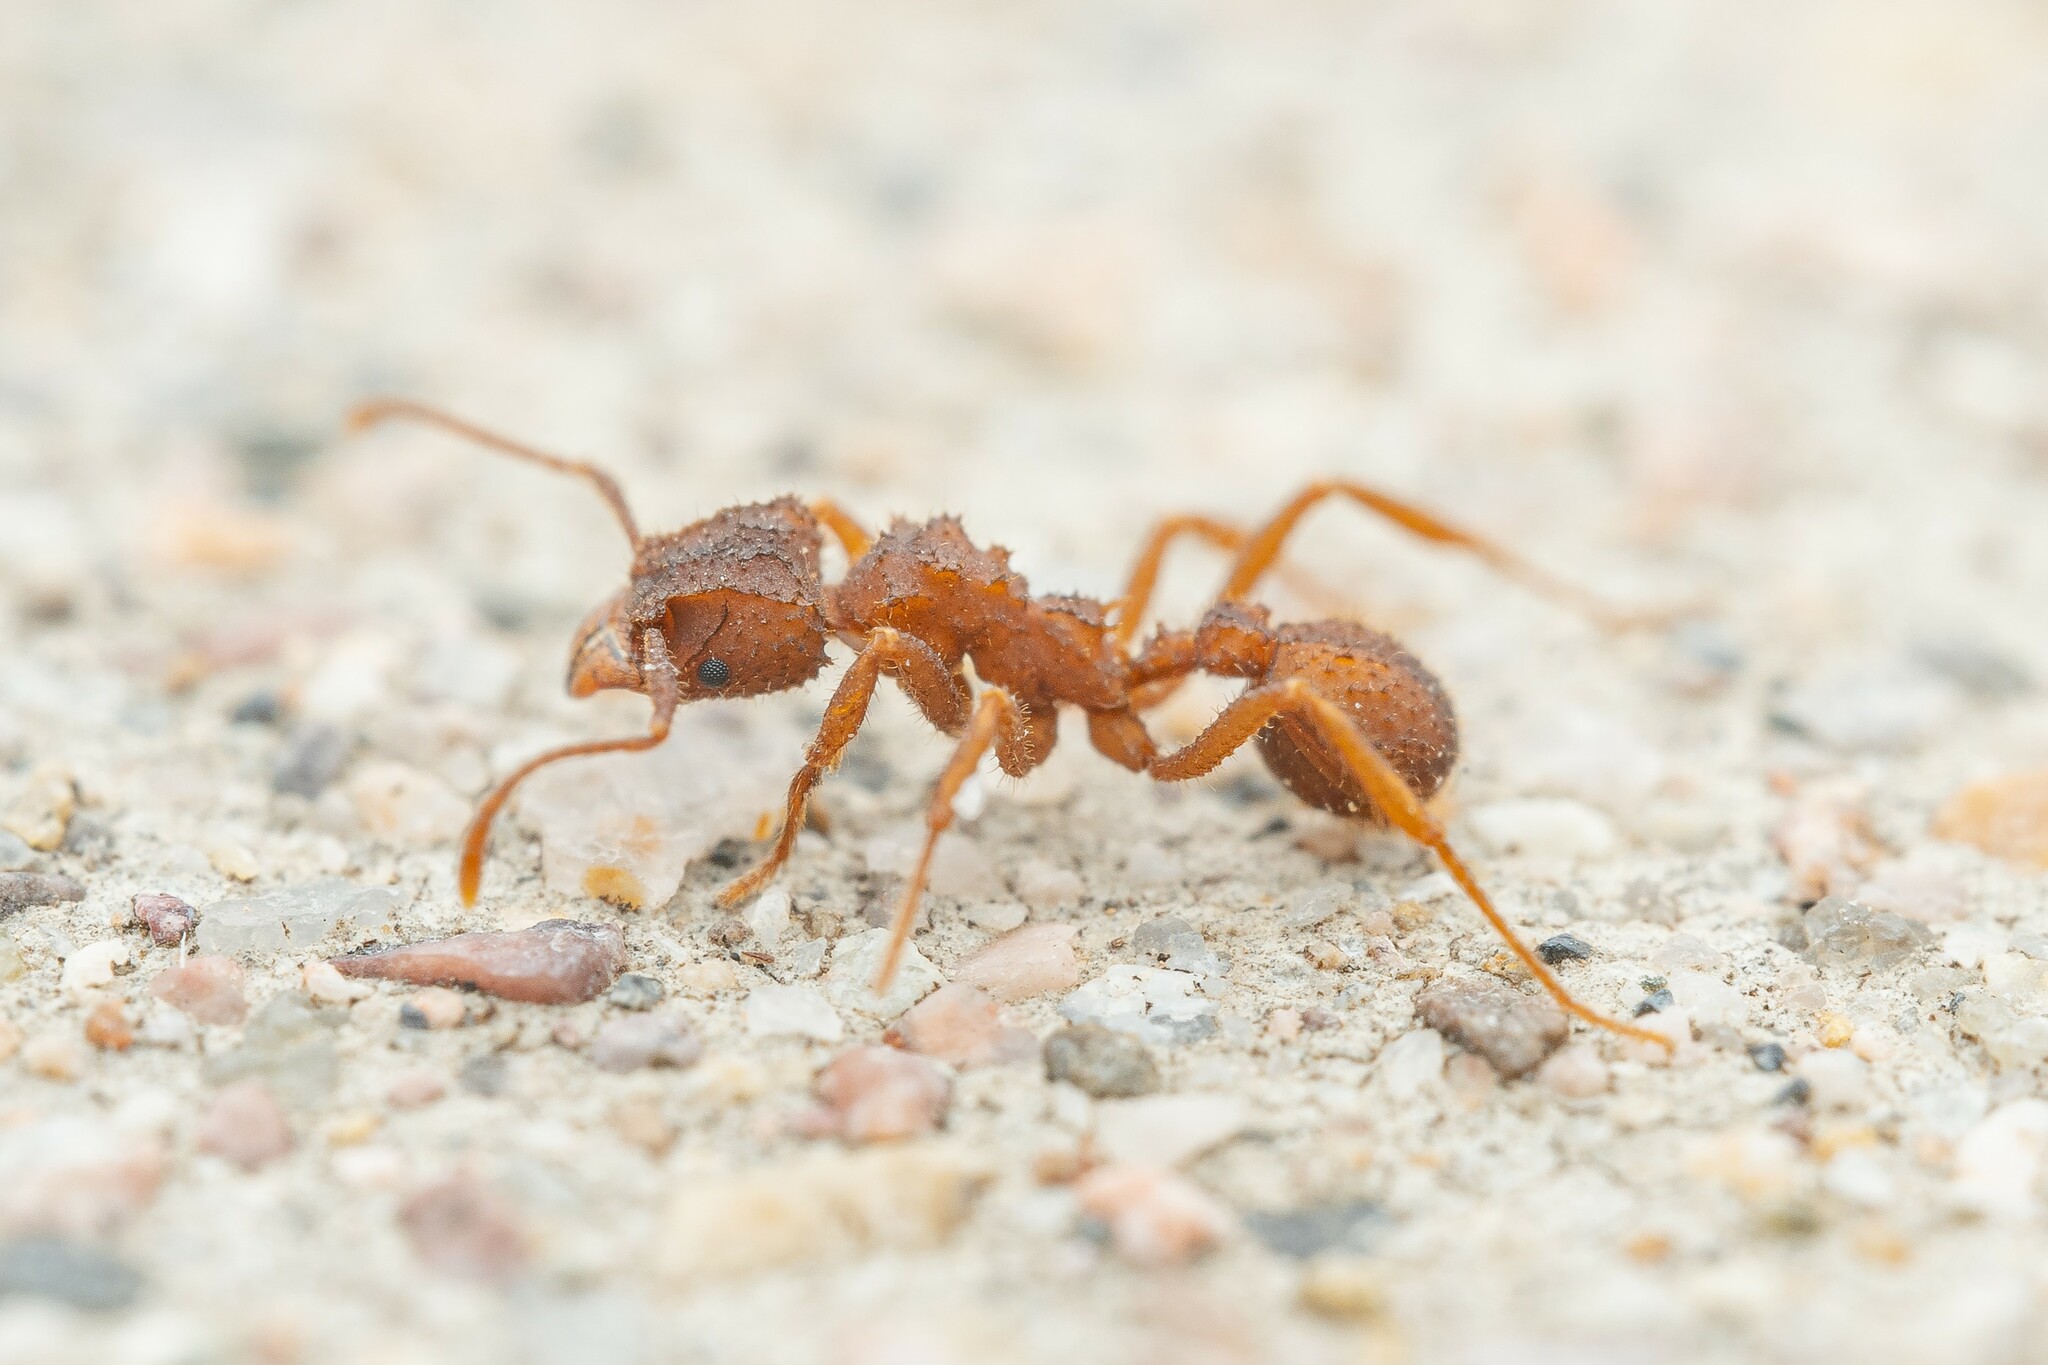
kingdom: Animalia
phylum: Arthropoda
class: Insecta
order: Hymenoptera
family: Formicidae
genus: Trachymyrmex
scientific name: Trachymyrmex carinatus
